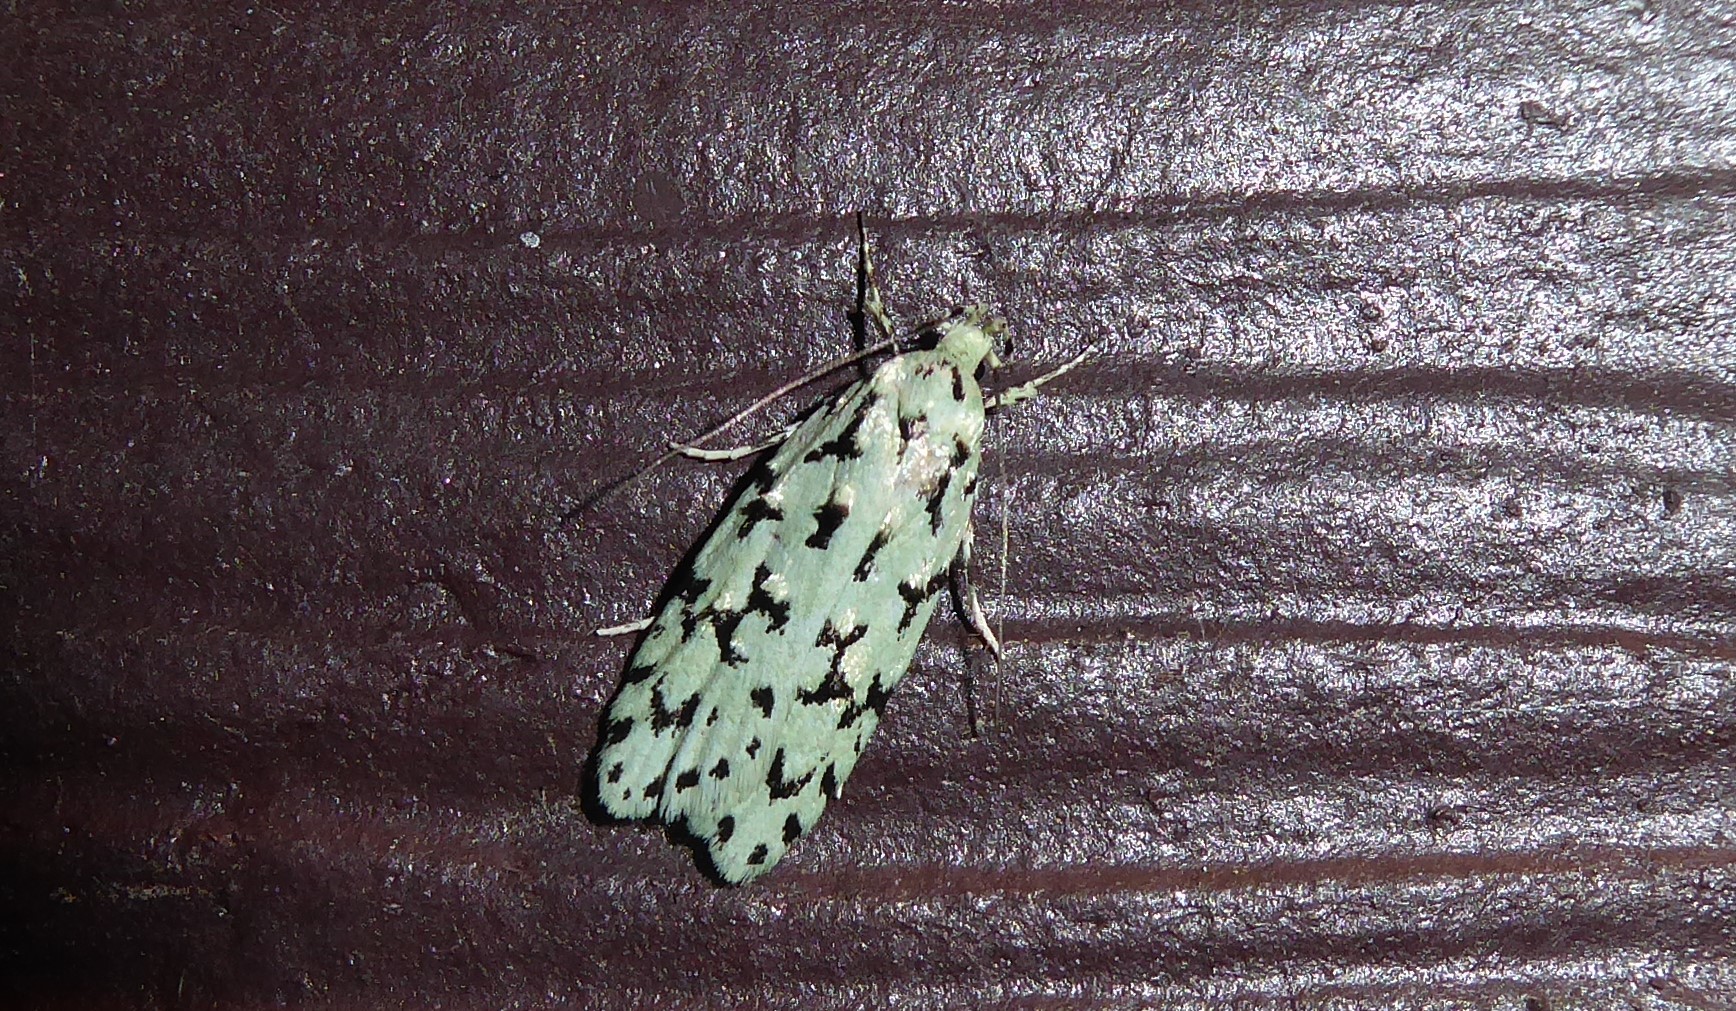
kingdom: Animalia
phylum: Arthropoda
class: Insecta
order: Lepidoptera
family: Oecophoridae
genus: Izatha
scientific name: Izatha huttoni
